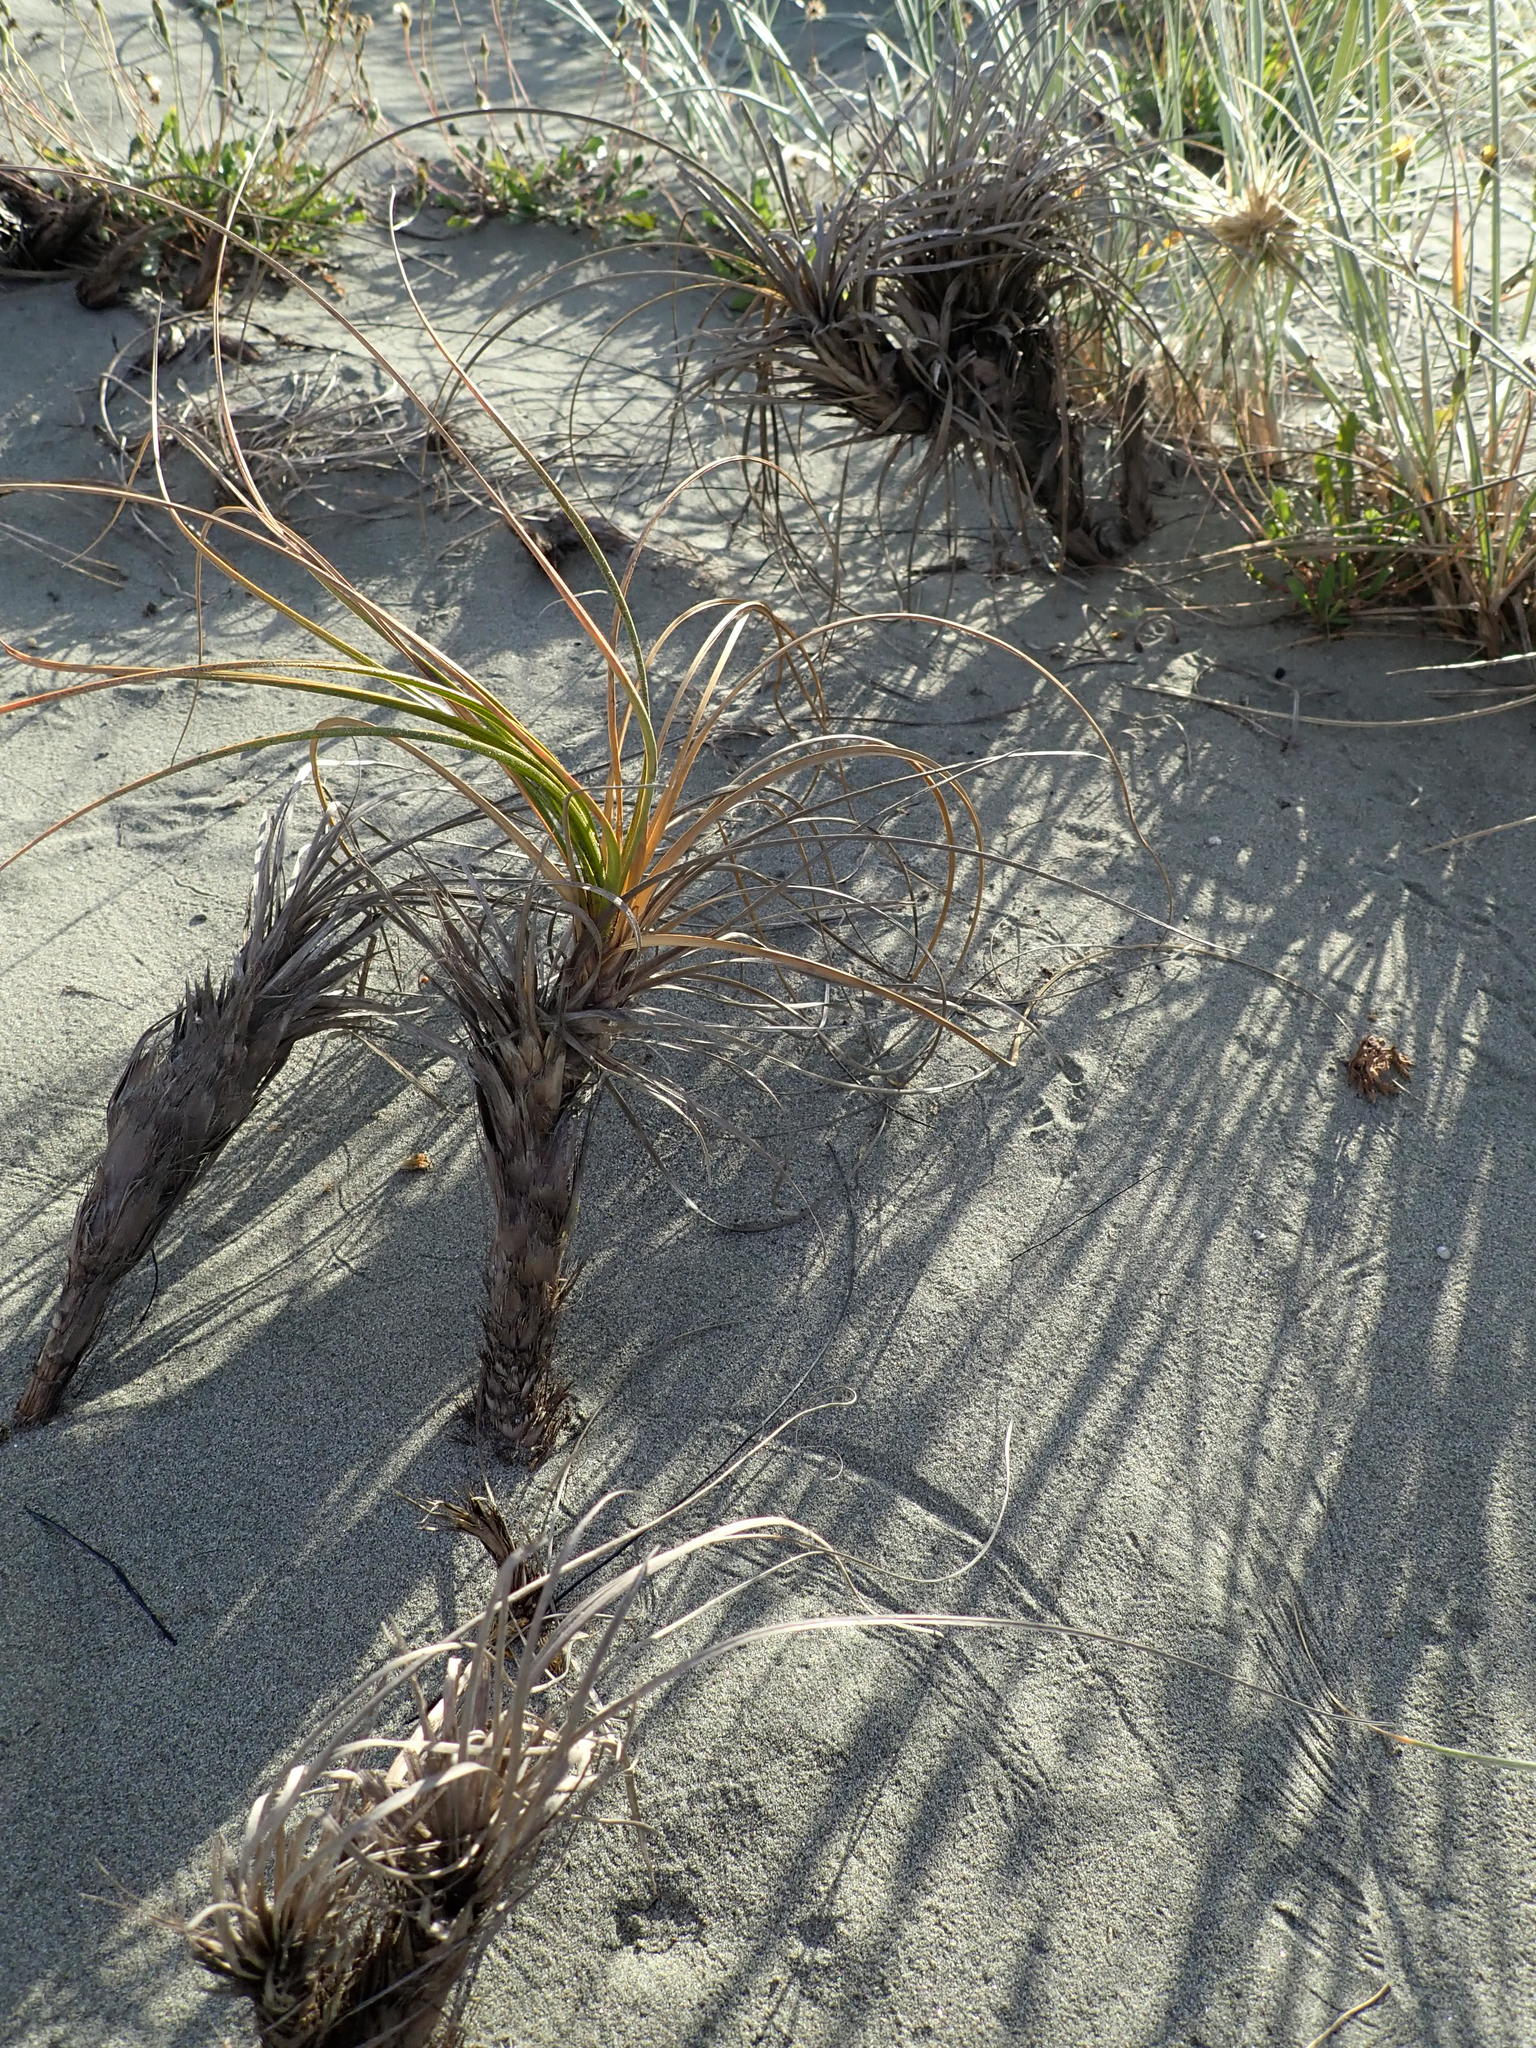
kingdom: Plantae
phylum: Tracheophyta
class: Liliopsida
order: Poales
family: Cyperaceae
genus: Ficinia
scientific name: Ficinia spiralis
